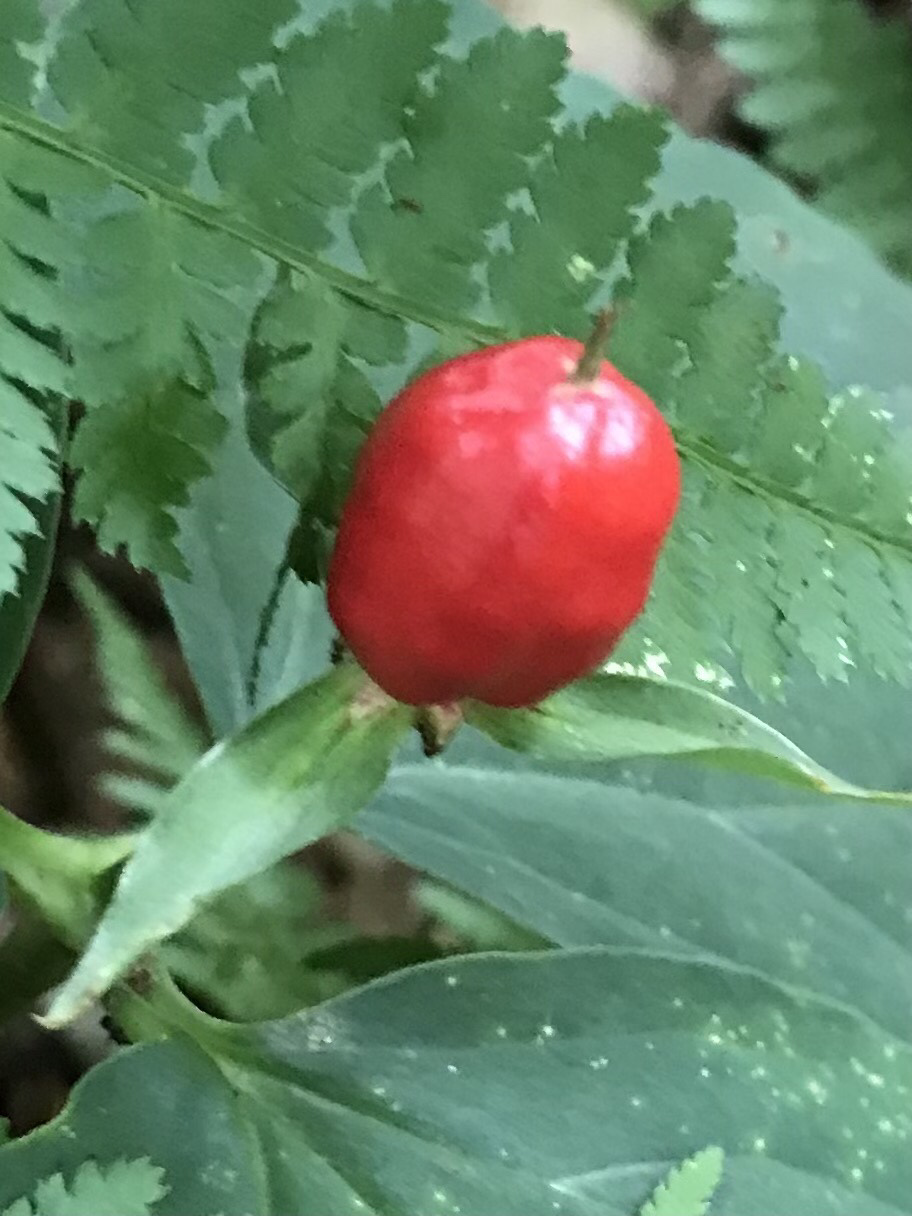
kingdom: Plantae
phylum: Tracheophyta
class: Liliopsida
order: Liliales
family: Melanthiaceae
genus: Trillium
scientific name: Trillium undulatum
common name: Paint trillium
